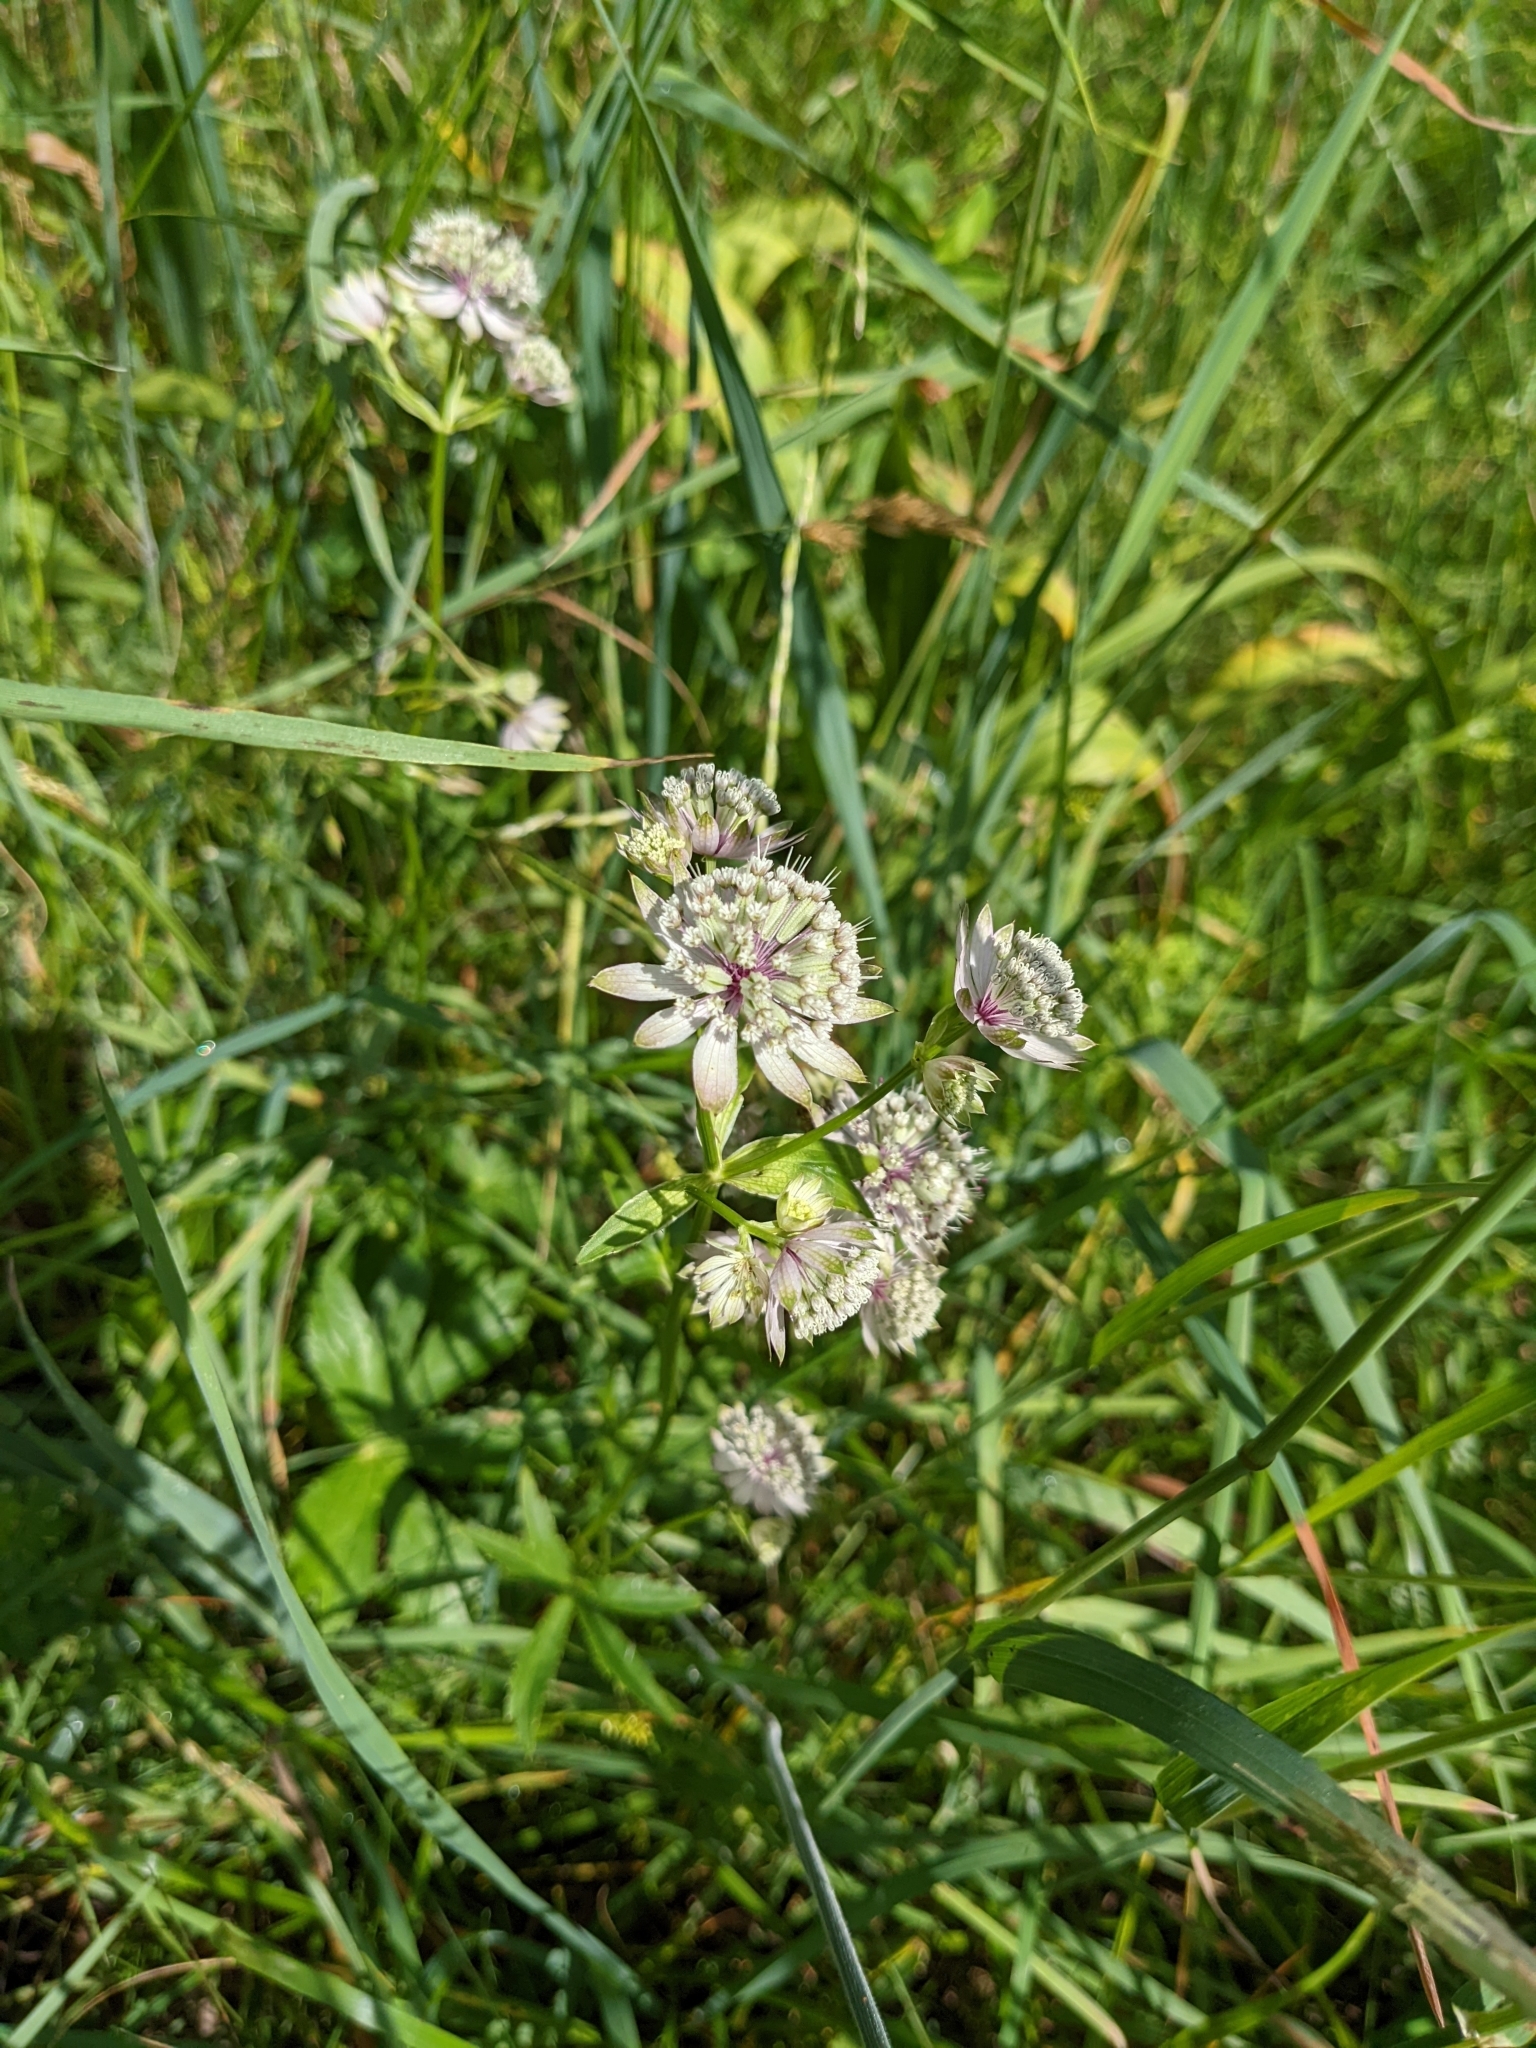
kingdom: Plantae
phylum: Tracheophyta
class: Magnoliopsida
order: Apiales
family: Apiaceae
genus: Astrantia
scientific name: Astrantia major
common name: Greater masterwort
